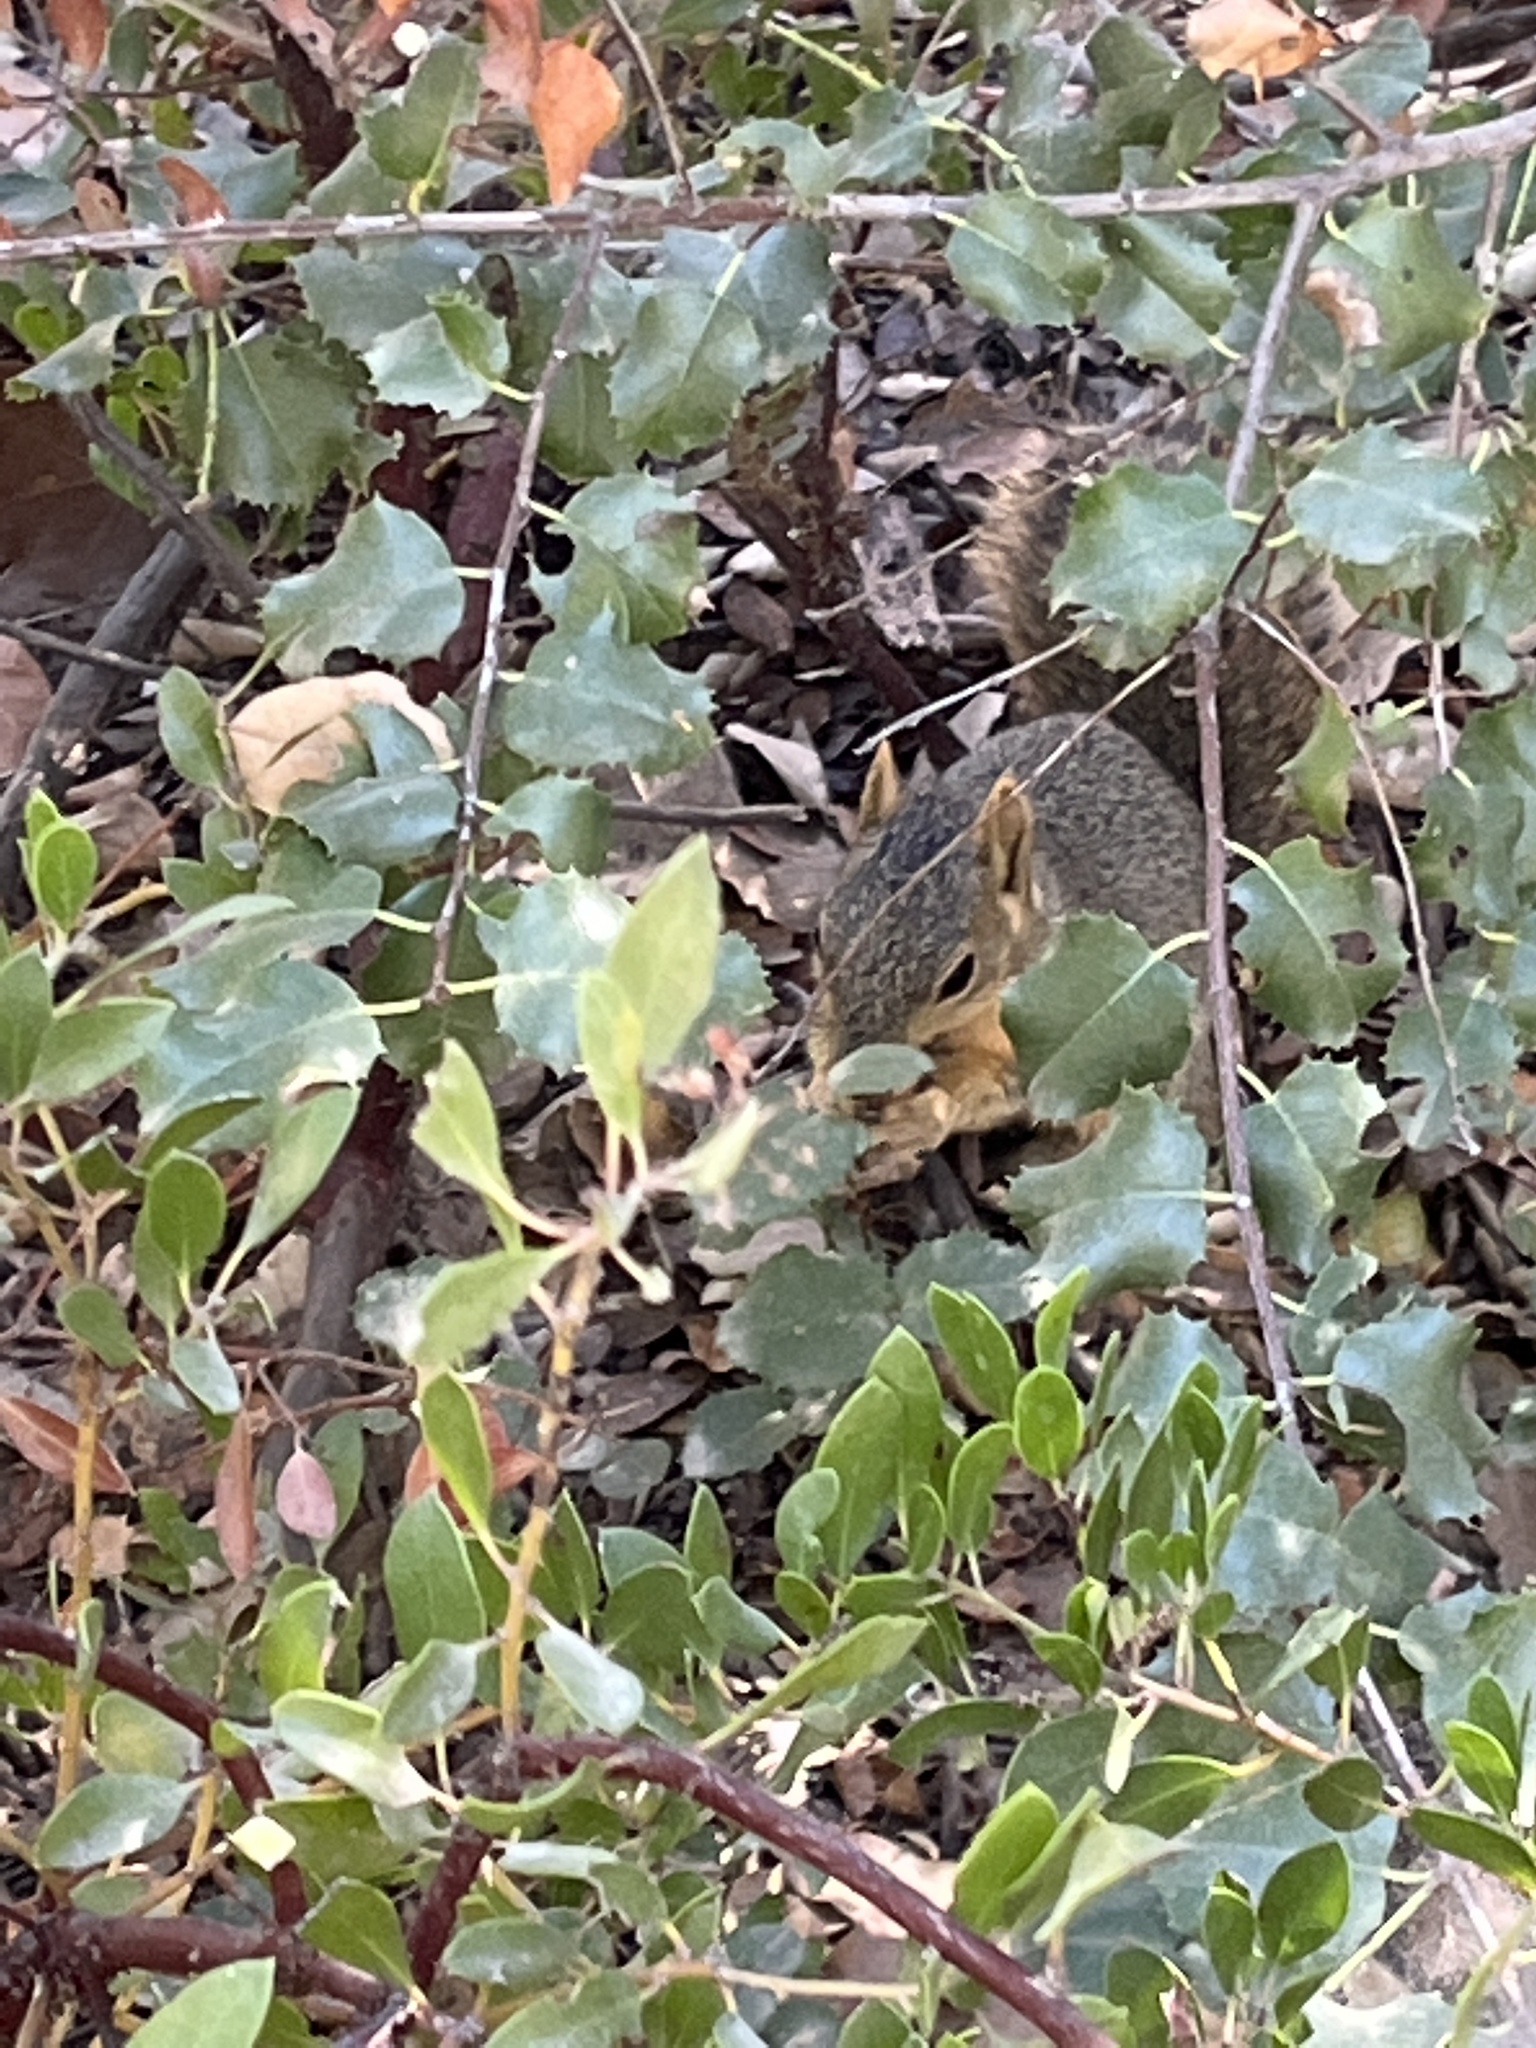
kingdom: Animalia
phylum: Chordata
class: Mammalia
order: Rodentia
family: Sciuridae
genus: Sciurus
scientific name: Sciurus niger
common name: Fox squirrel
